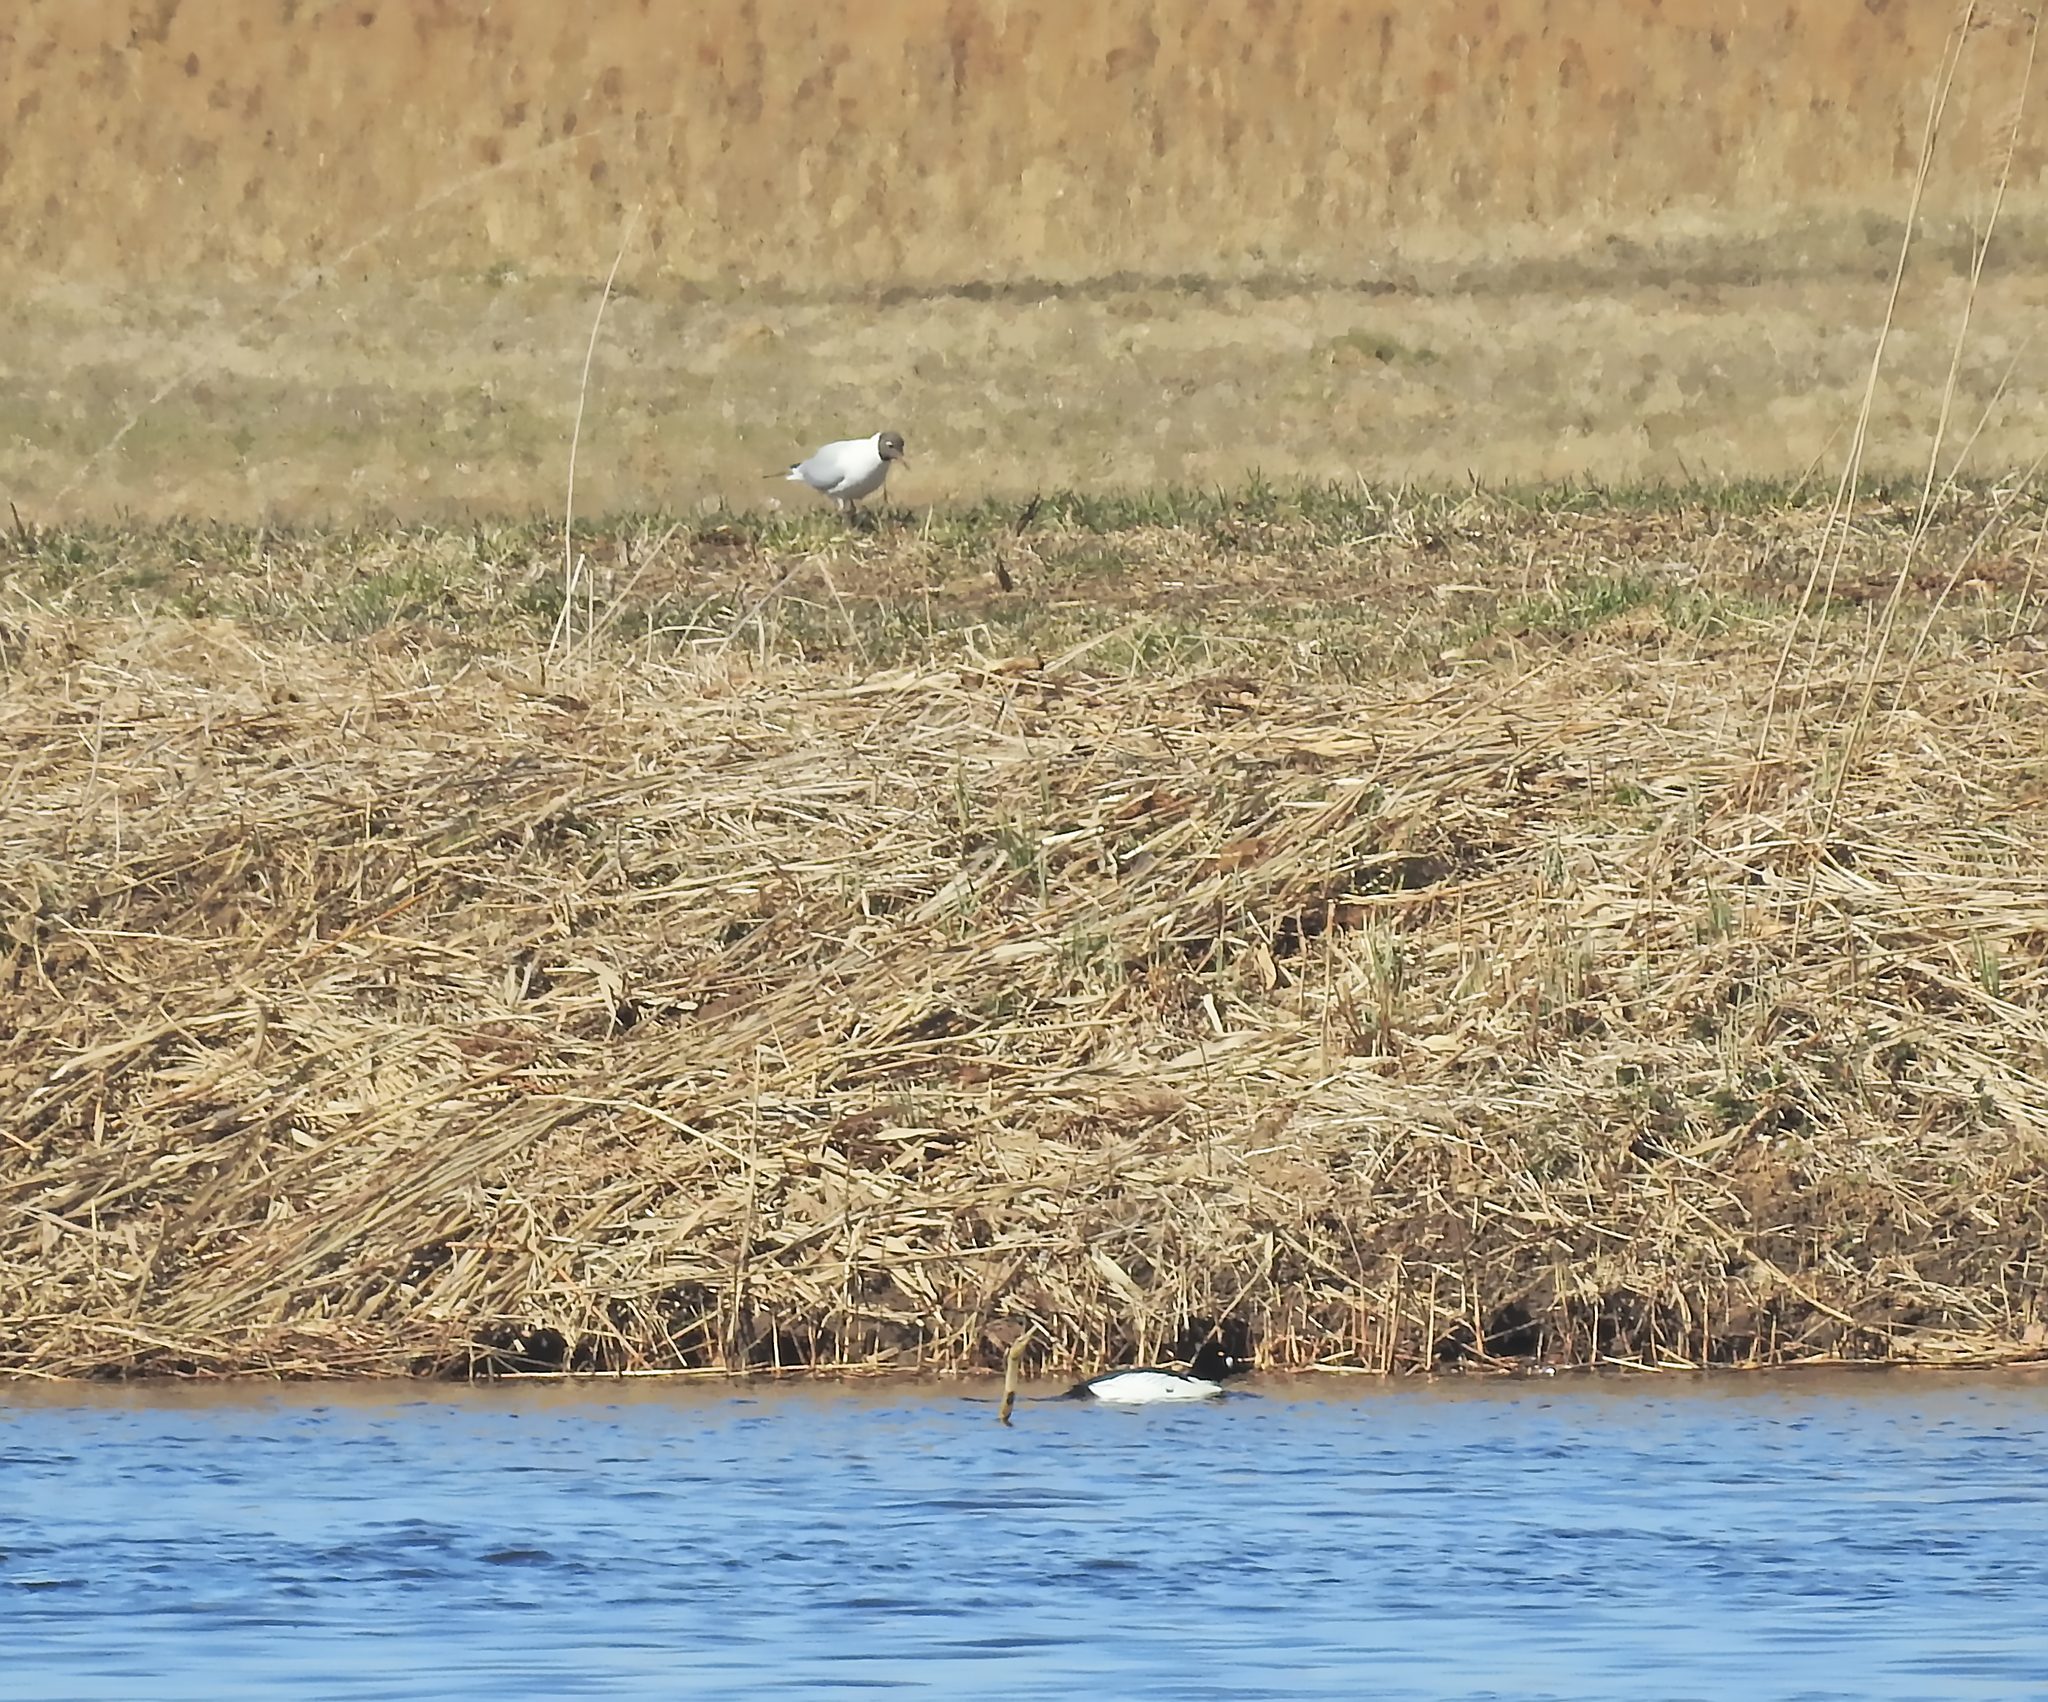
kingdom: Animalia
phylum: Chordata
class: Aves
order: Anseriformes
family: Anatidae
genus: Bucephala
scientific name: Bucephala clangula
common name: Common goldeneye
